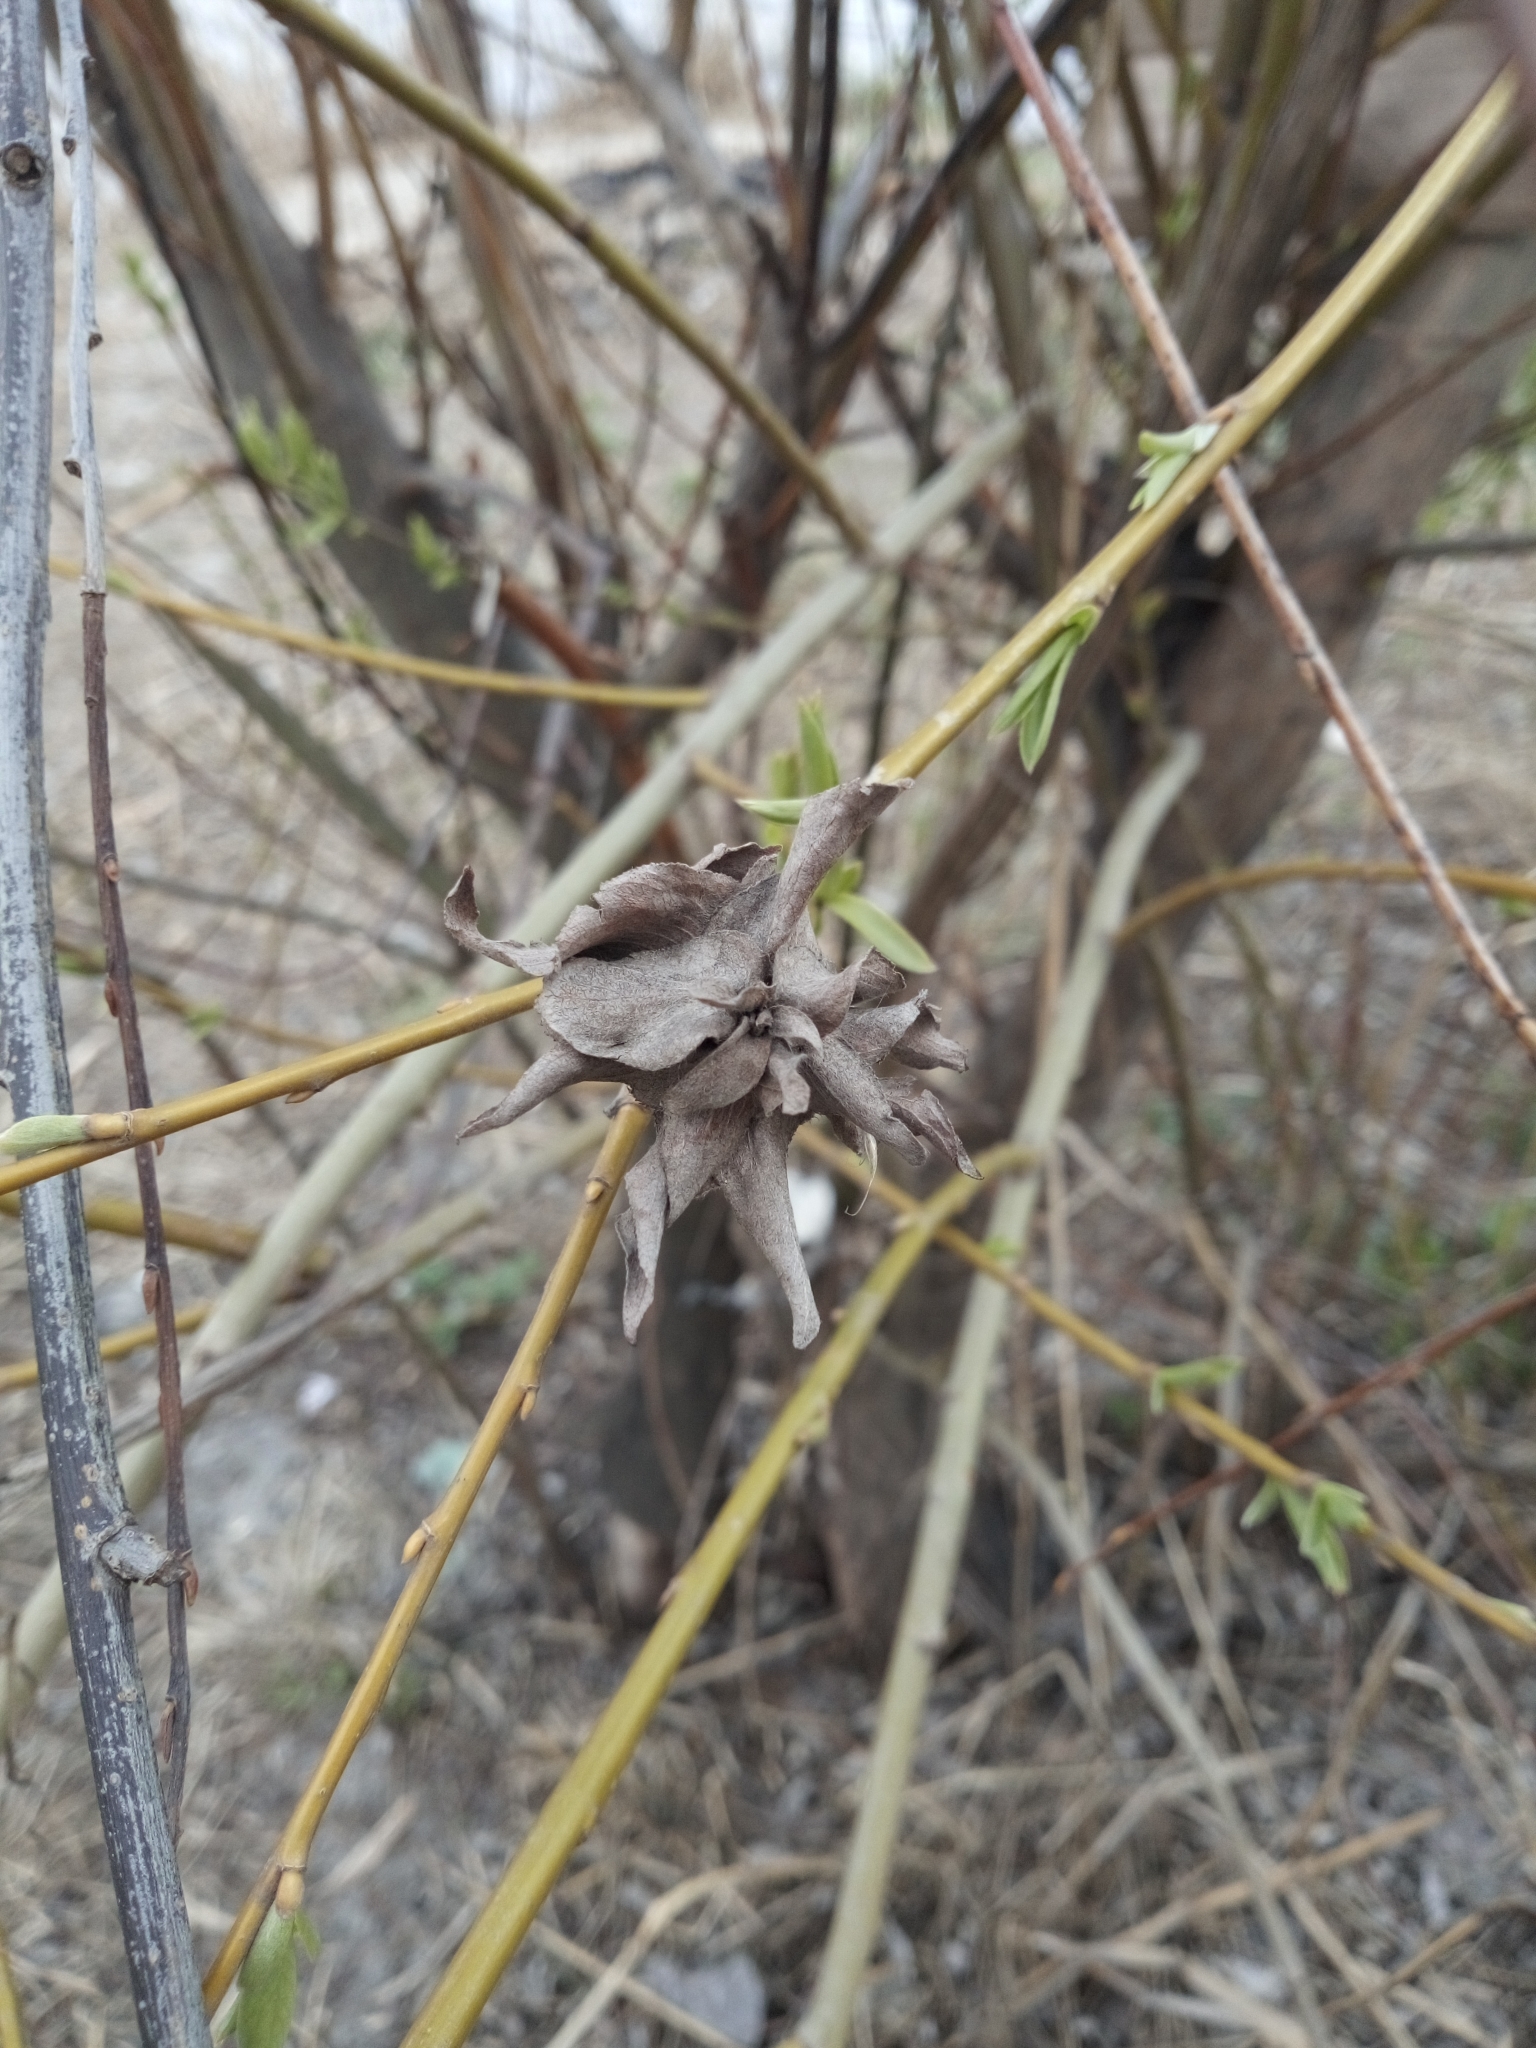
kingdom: Animalia
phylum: Arthropoda
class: Insecta
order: Diptera
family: Cecidomyiidae
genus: Rabdophaga
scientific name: Rabdophaga rosaria
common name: Willow rose gall midge
